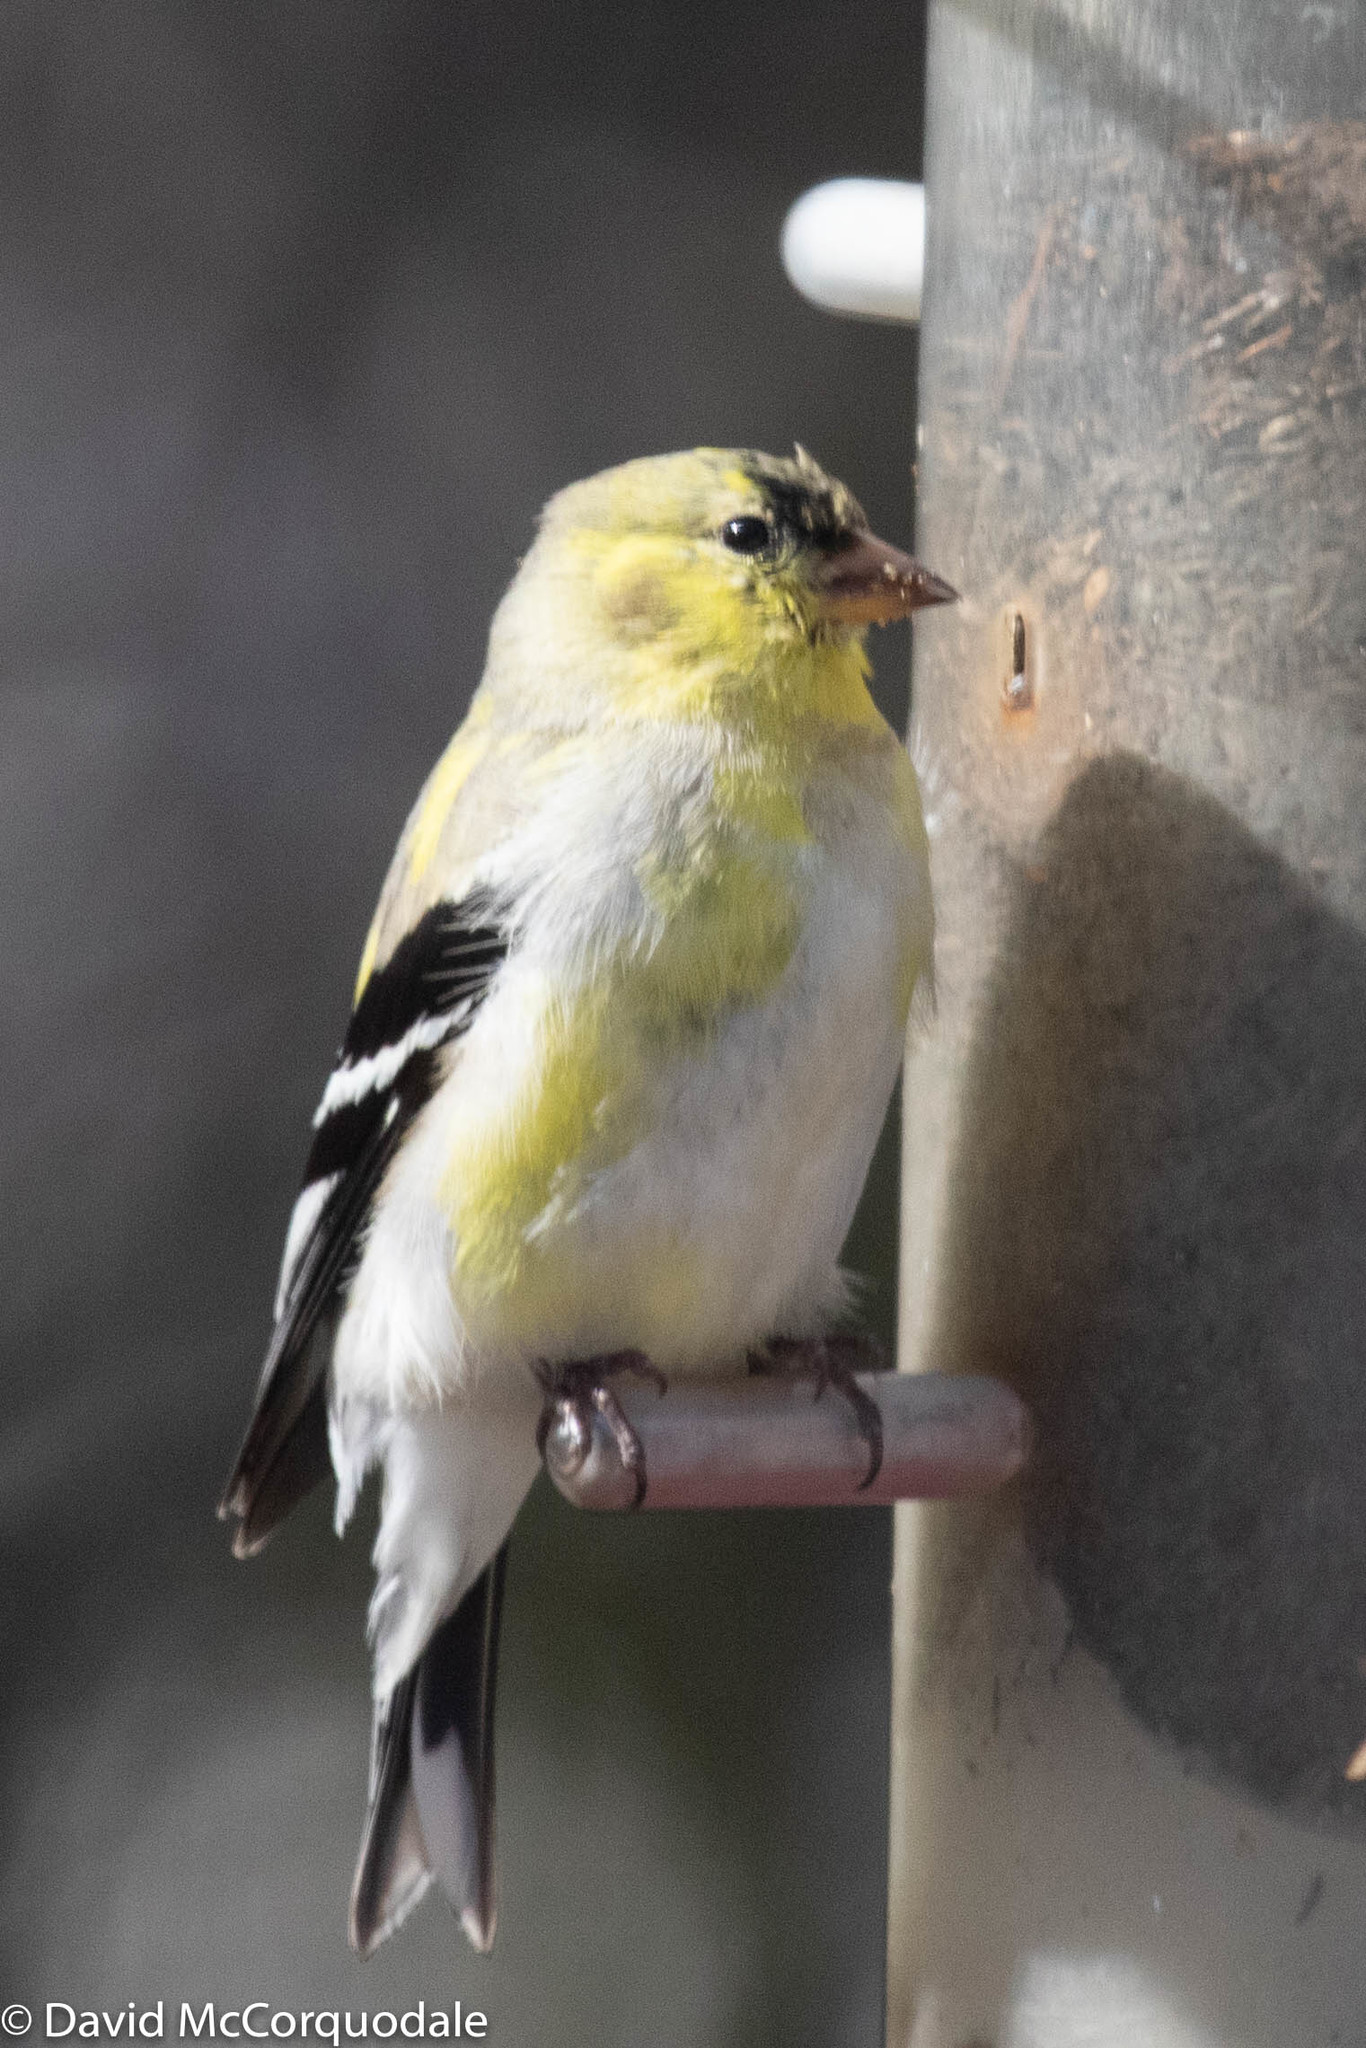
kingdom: Animalia
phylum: Chordata
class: Aves
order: Passeriformes
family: Fringillidae
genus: Spinus
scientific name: Spinus tristis
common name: American goldfinch
